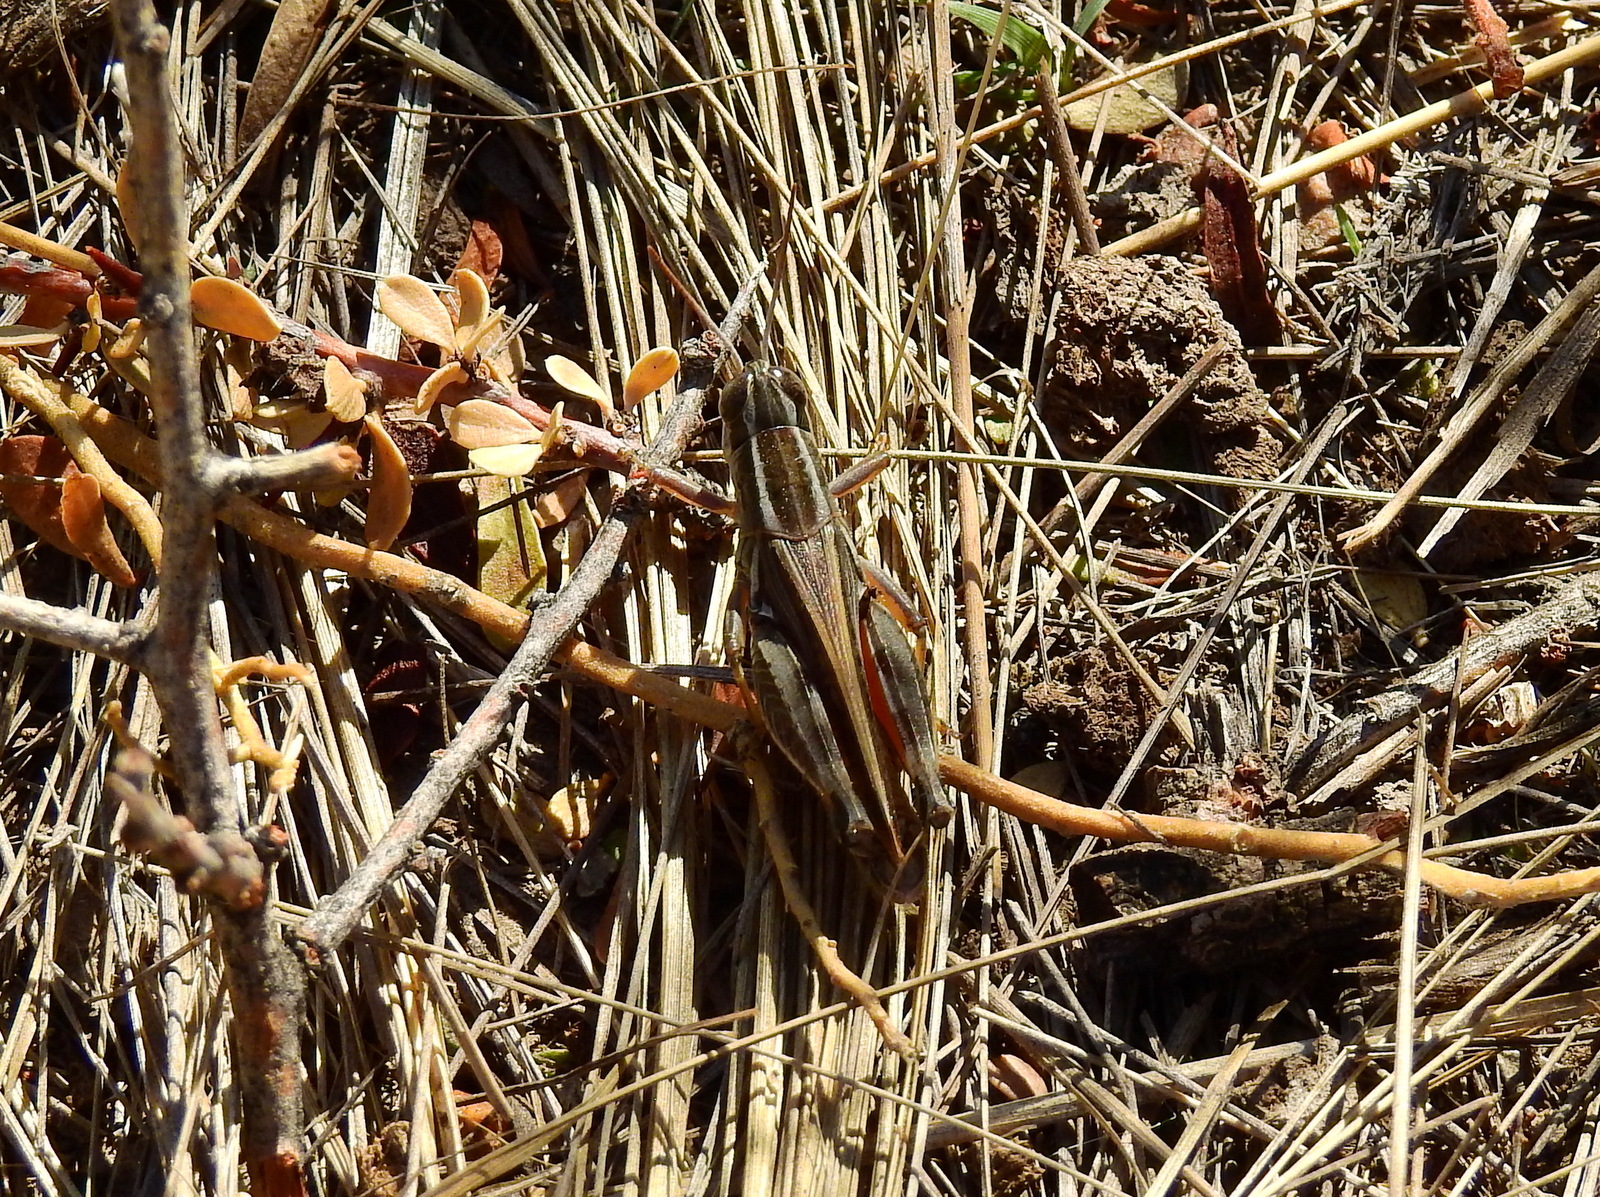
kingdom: Animalia
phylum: Arthropoda
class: Insecta
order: Orthoptera
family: Acrididae
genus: Dichroplus
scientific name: Dichroplus pratensis
